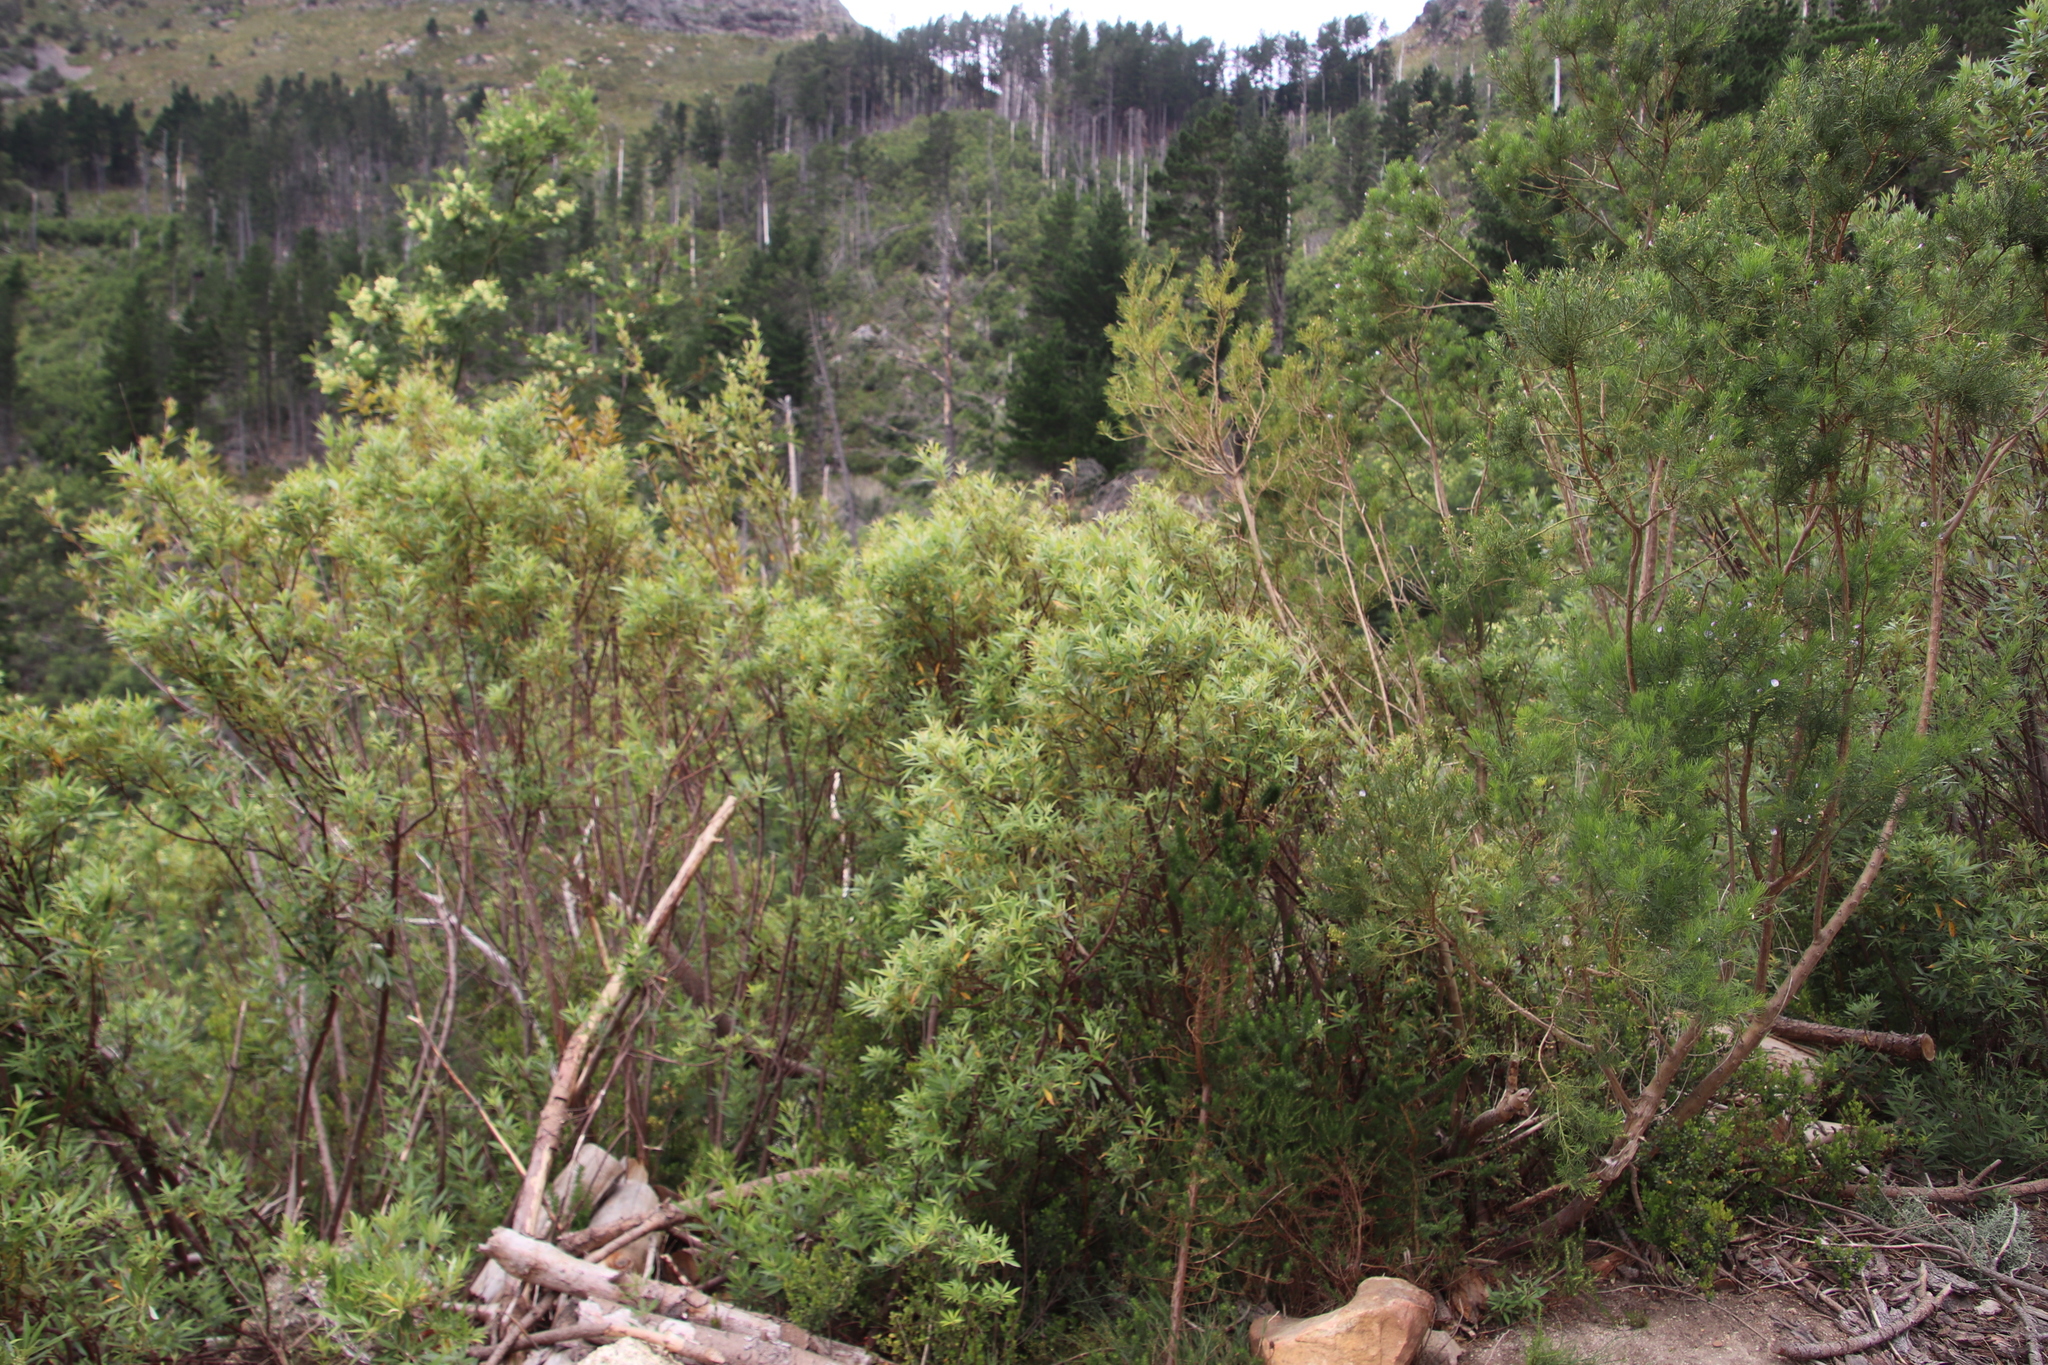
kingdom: Plantae
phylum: Tracheophyta
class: Magnoliopsida
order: Sapindales
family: Anacardiaceae
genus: Searsia
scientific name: Searsia angustifolia
